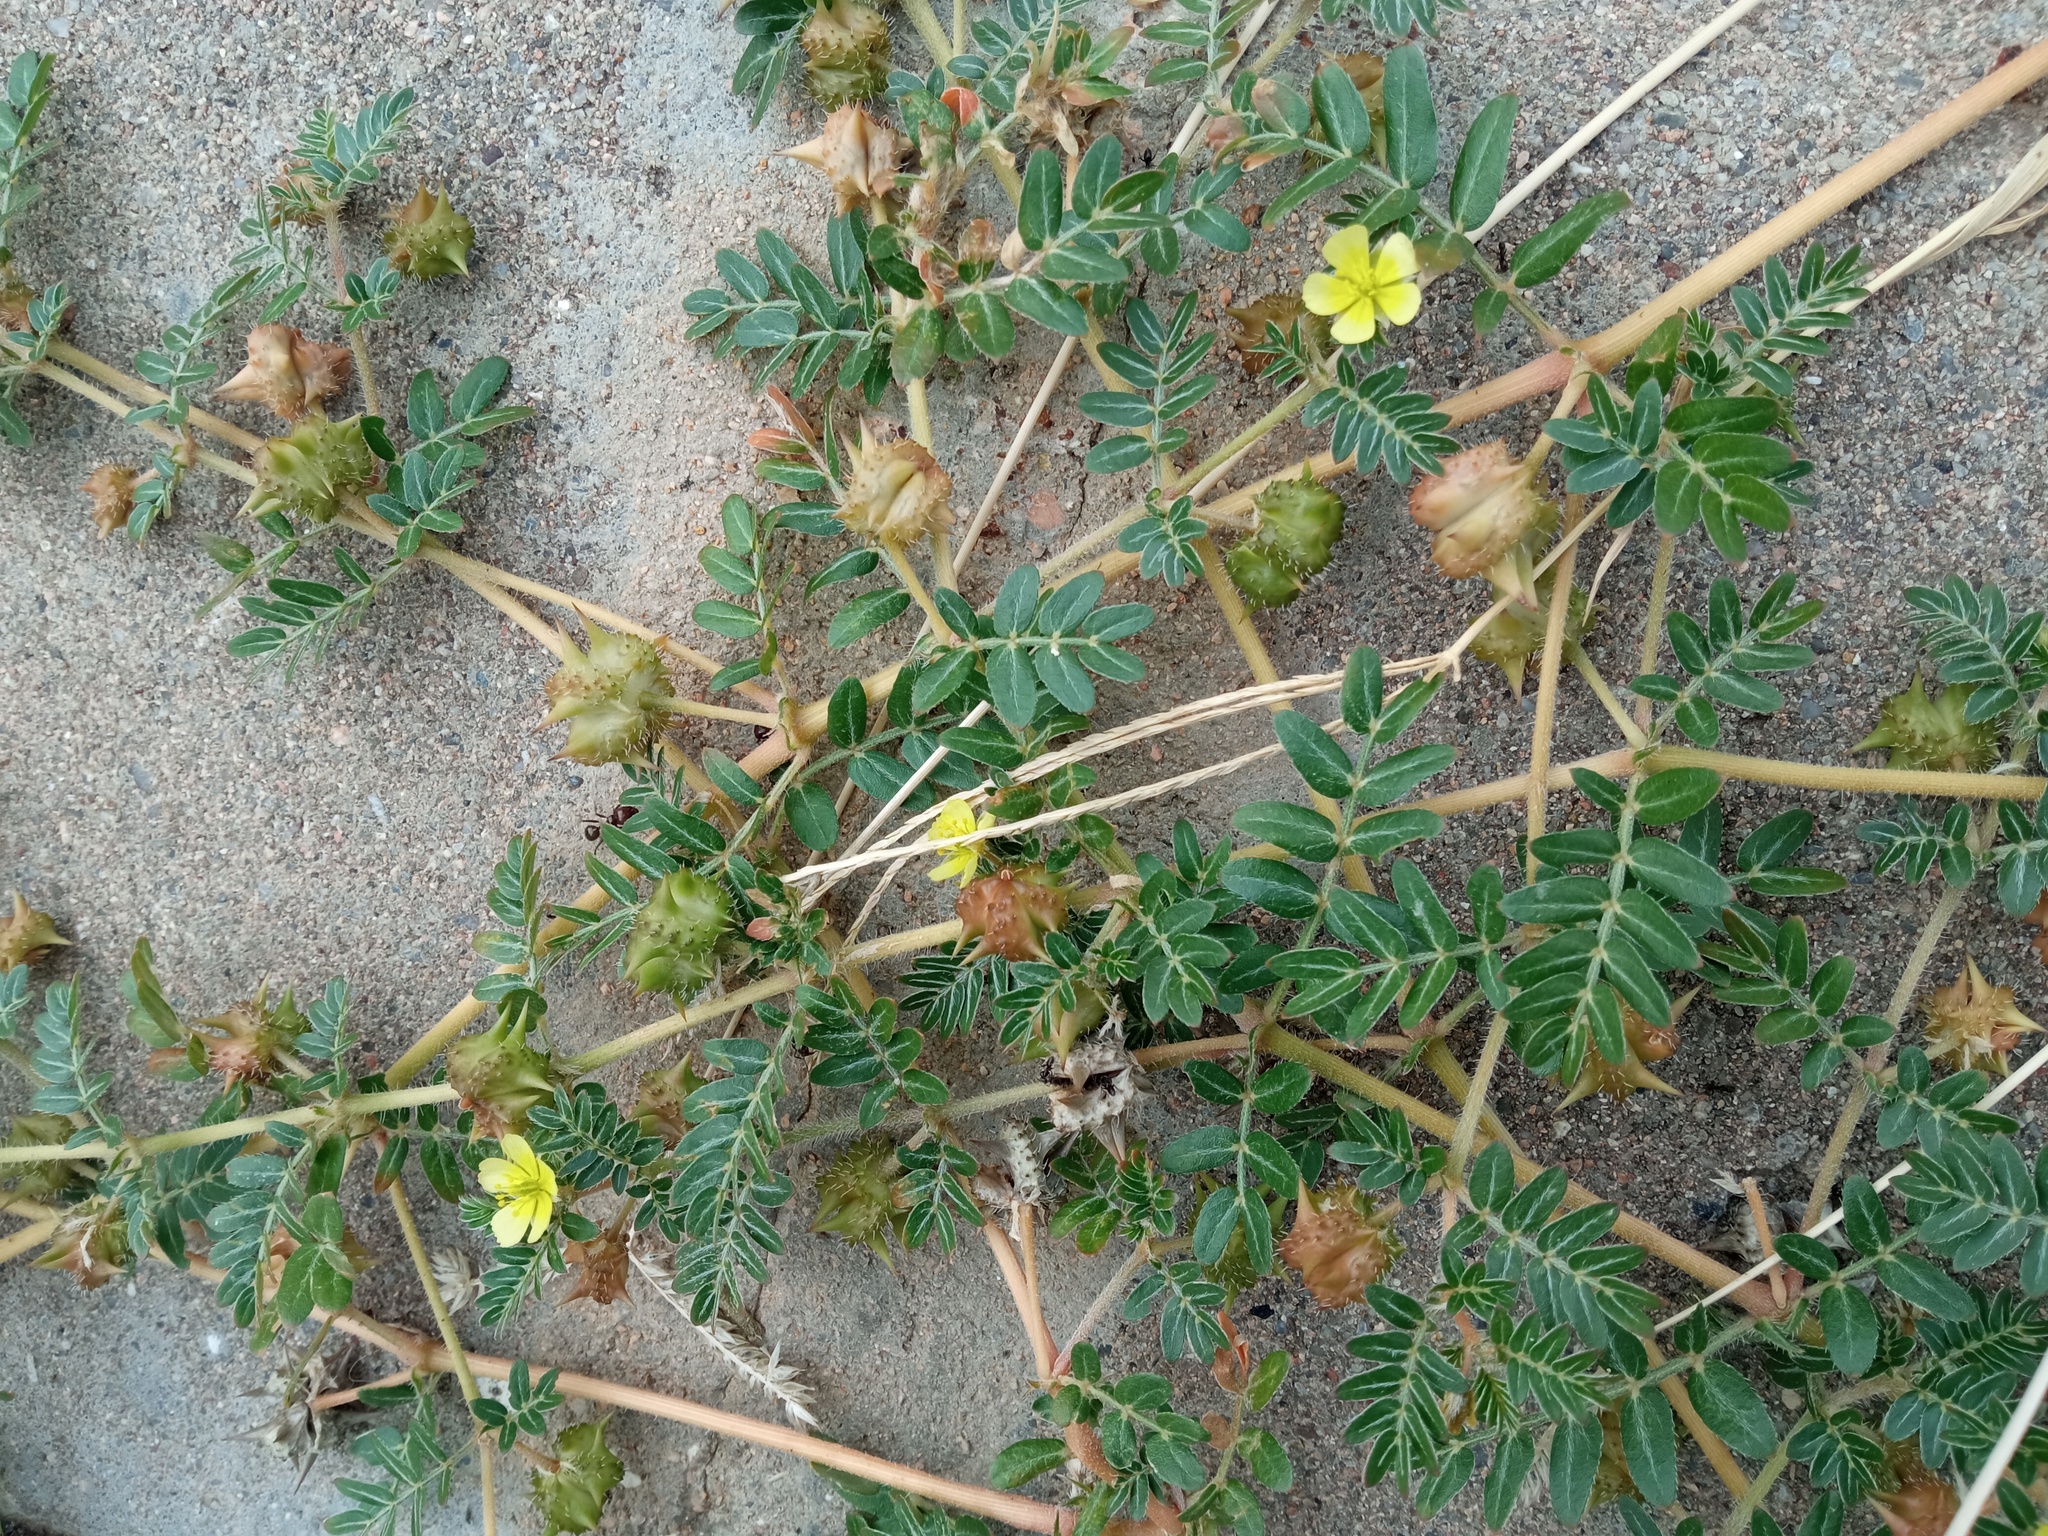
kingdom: Plantae
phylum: Tracheophyta
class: Magnoliopsida
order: Zygophyllales
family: Zygophyllaceae
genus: Tribulus
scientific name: Tribulus terrestris
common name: Puncturevine
